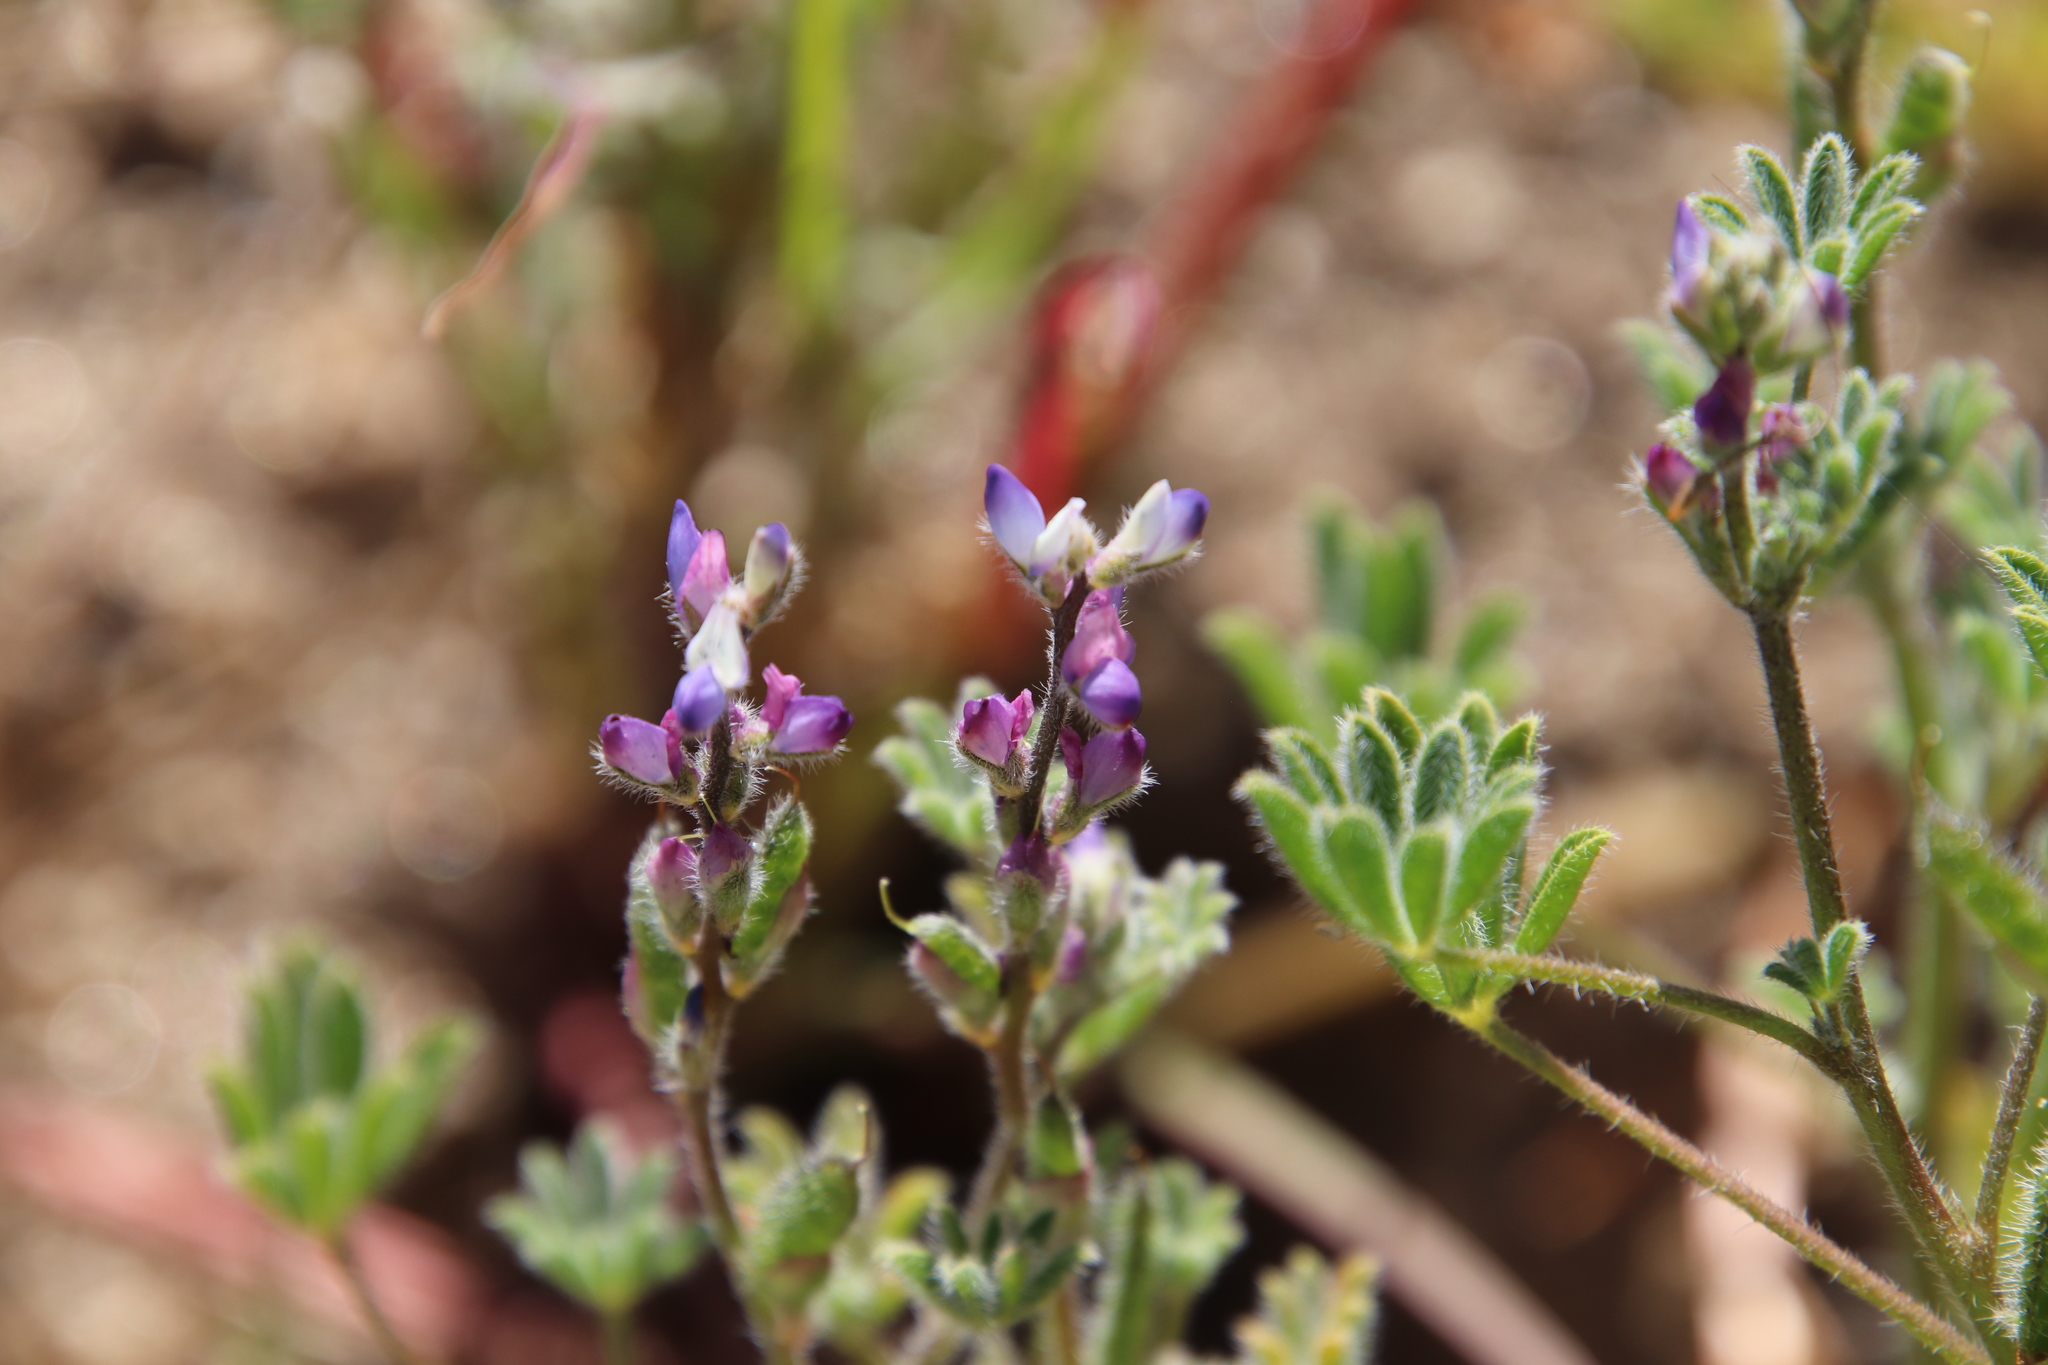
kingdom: Plantae
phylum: Tracheophyta
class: Magnoliopsida
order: Fabales
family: Fabaceae
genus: Lupinus
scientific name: Lupinus concinnus
